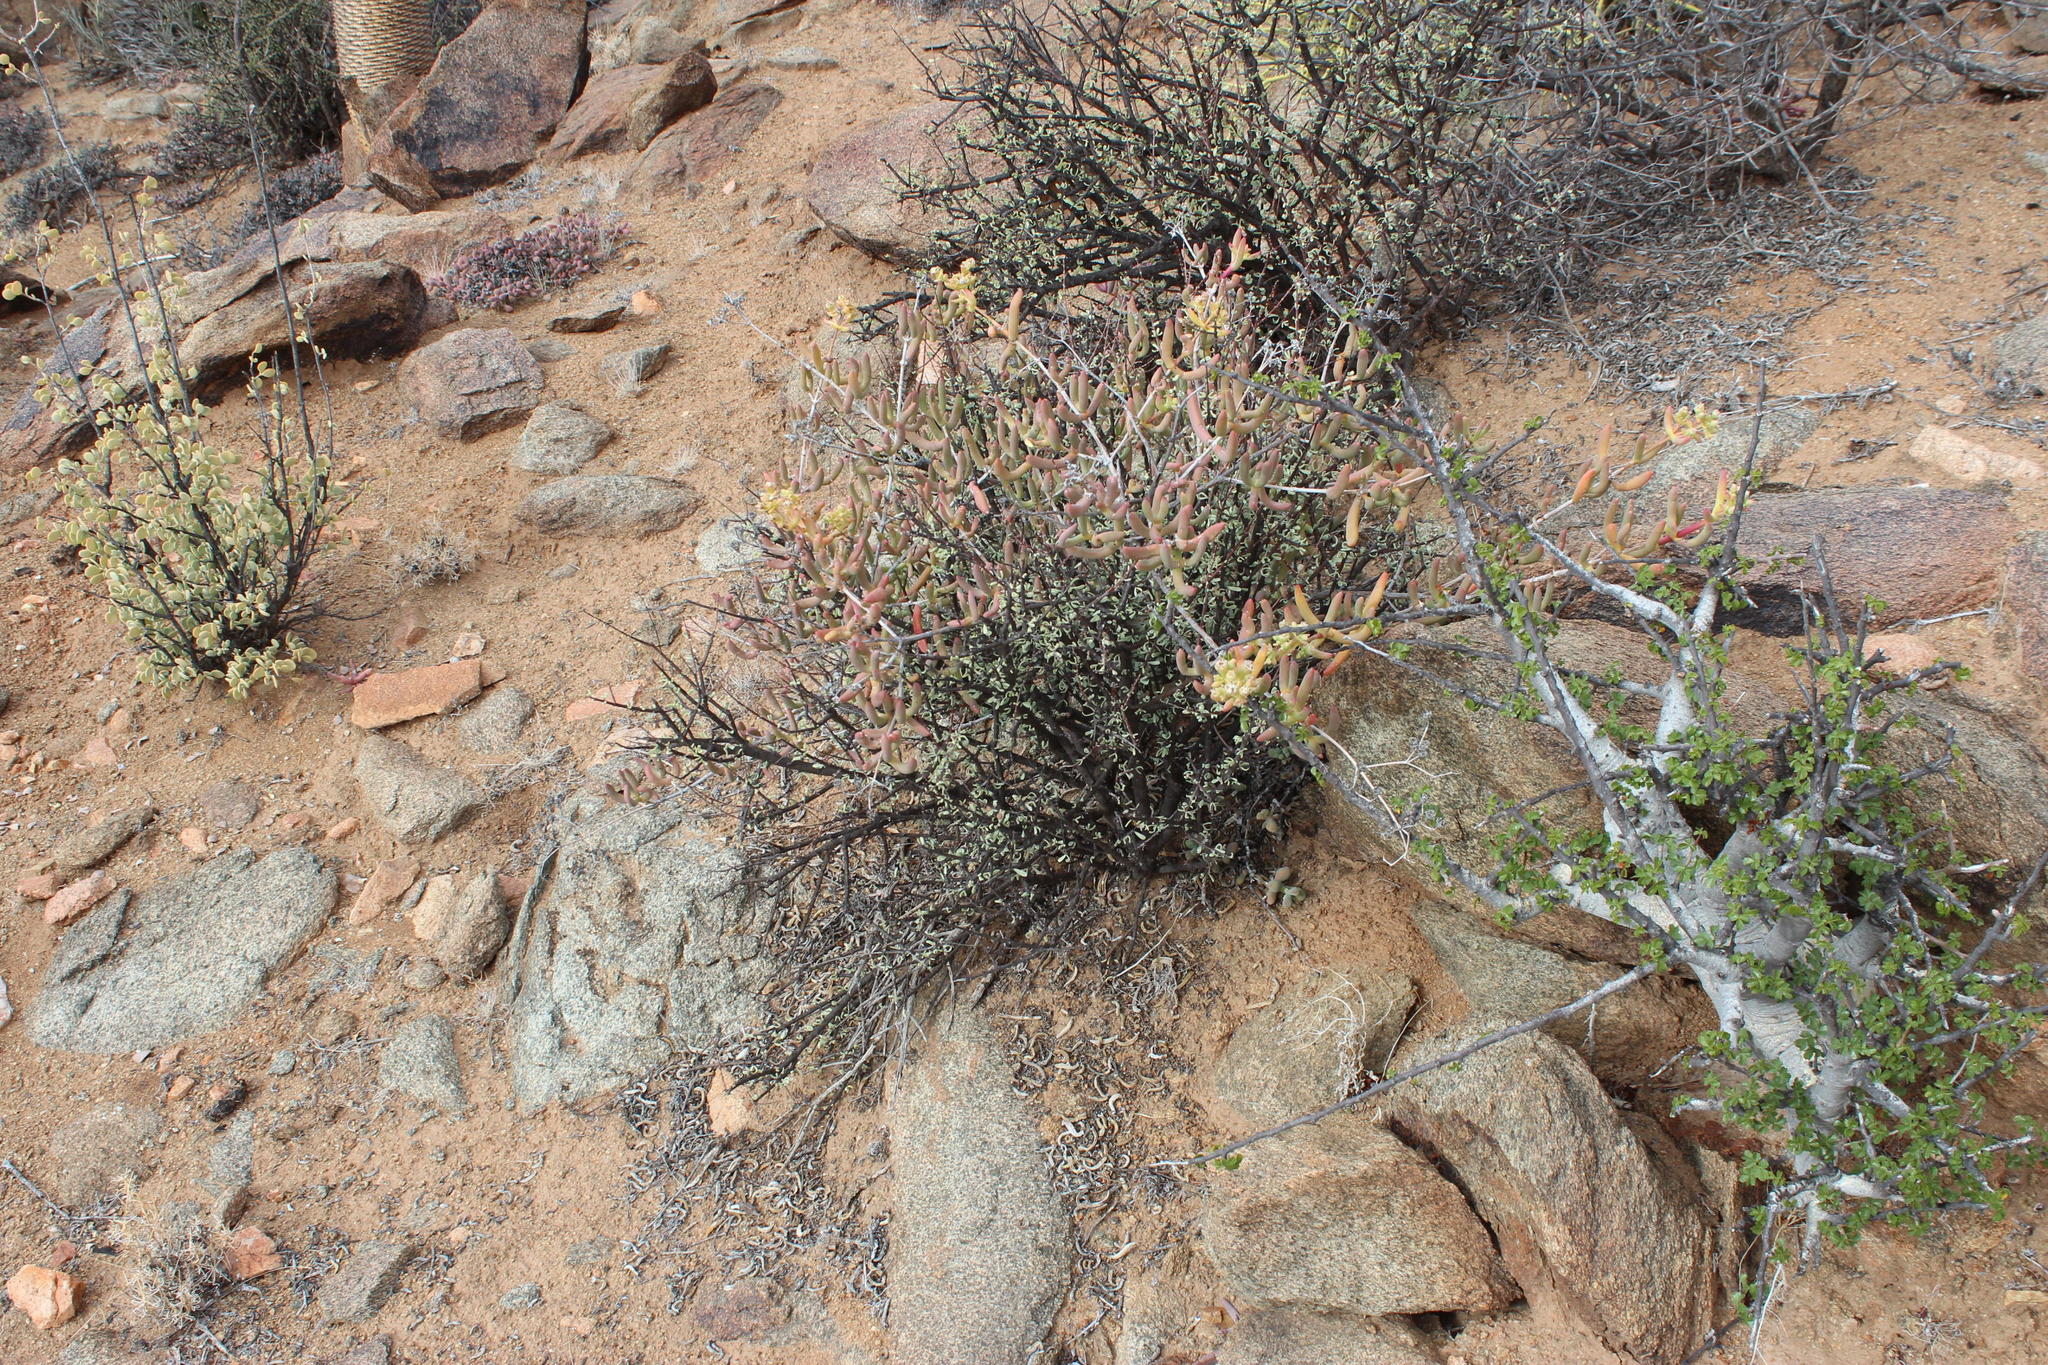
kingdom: Plantae
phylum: Tracheophyta
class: Magnoliopsida
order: Caryophyllales
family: Aizoaceae
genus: Stoeberia
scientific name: Stoeberia frutescens
